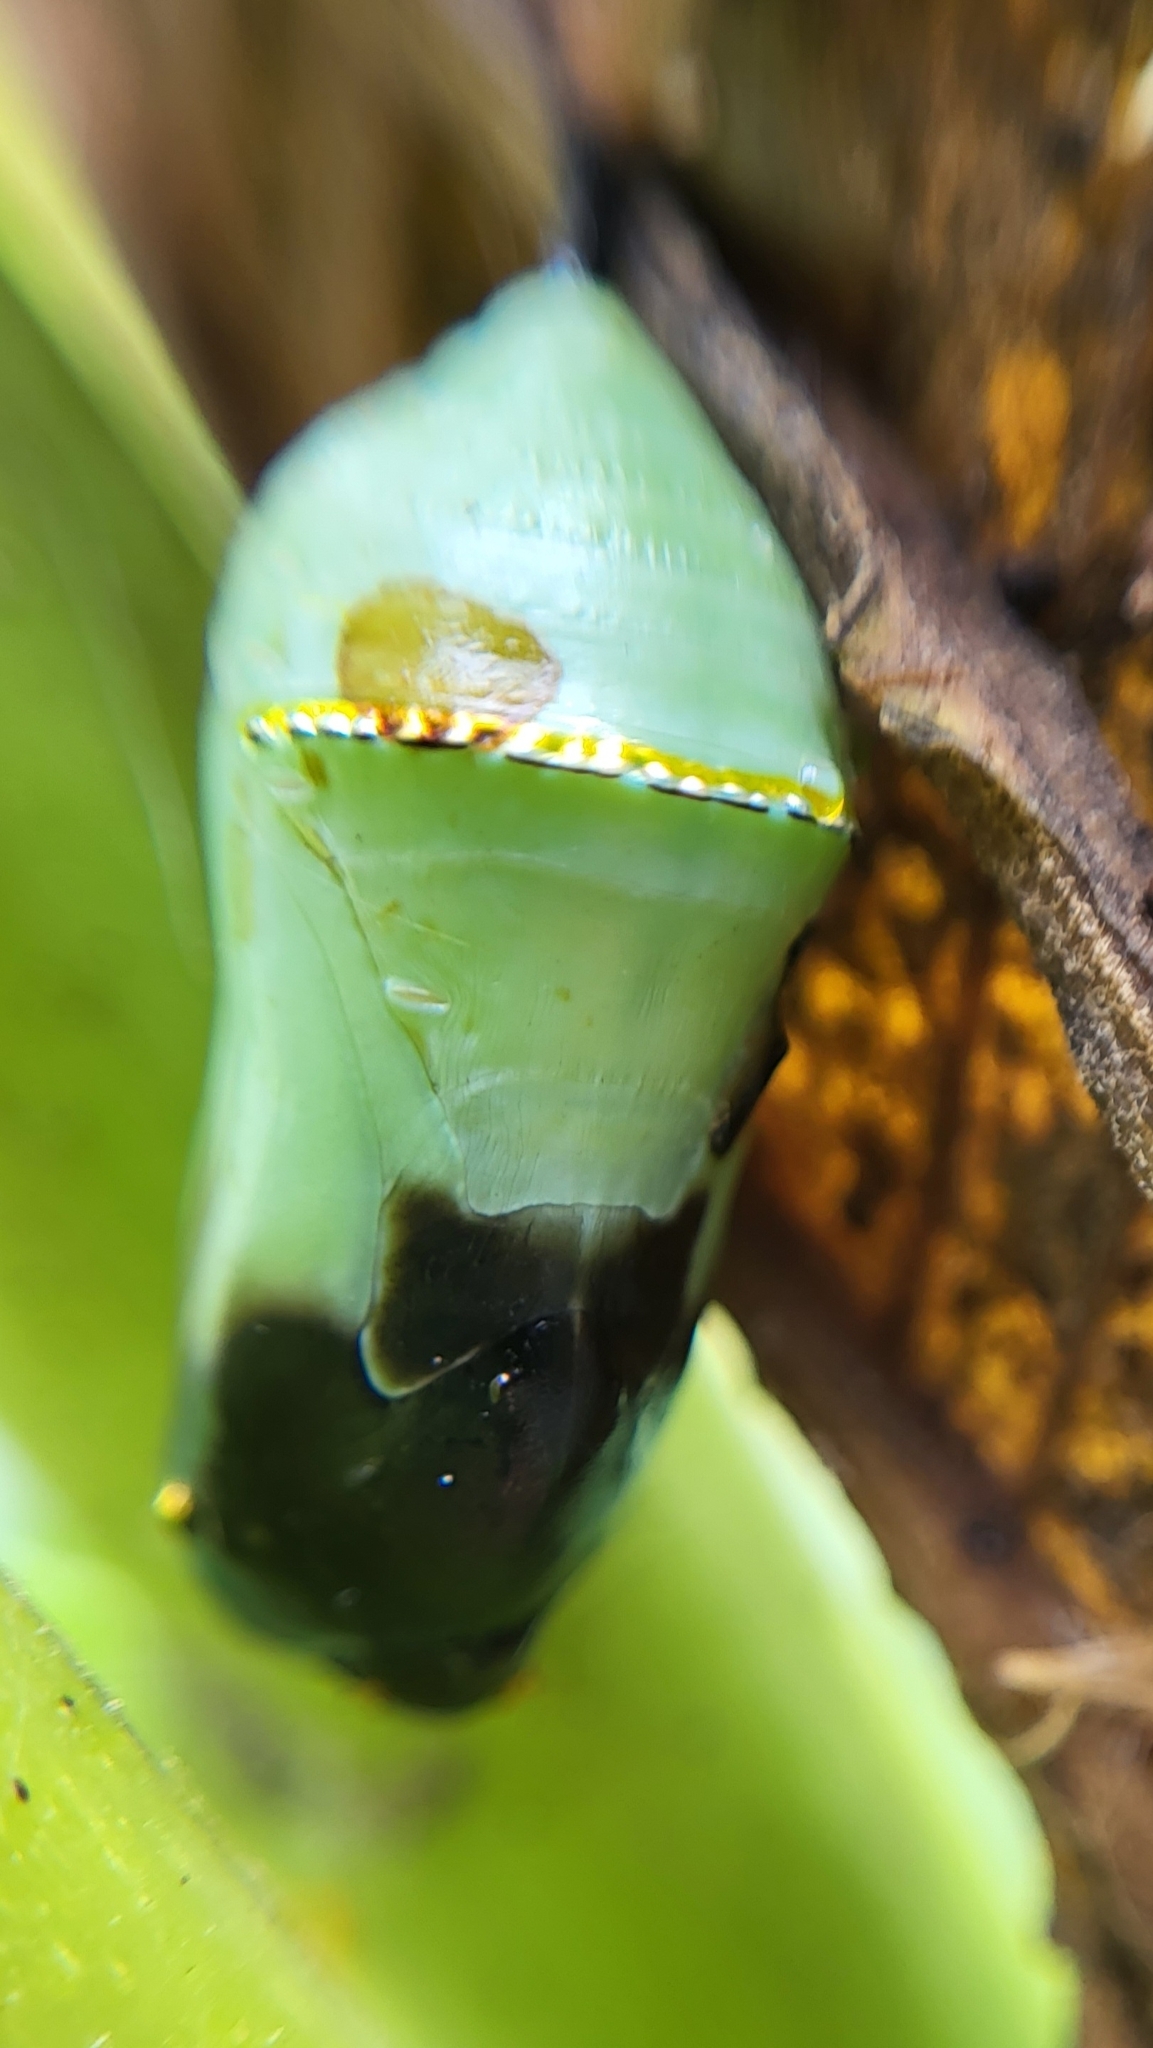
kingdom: Animalia
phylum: Arthropoda
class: Insecta
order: Lepidoptera
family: Nymphalidae
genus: Danaus
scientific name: Danaus plexippus
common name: Monarch
